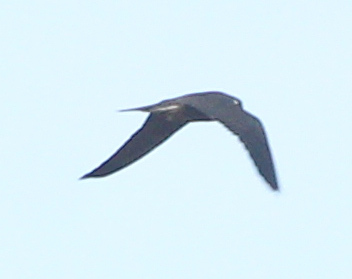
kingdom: Animalia
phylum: Chordata
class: Aves
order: Falconiformes
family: Falconidae
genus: Falco
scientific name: Falco subbuteo
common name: Eurasian hobby
